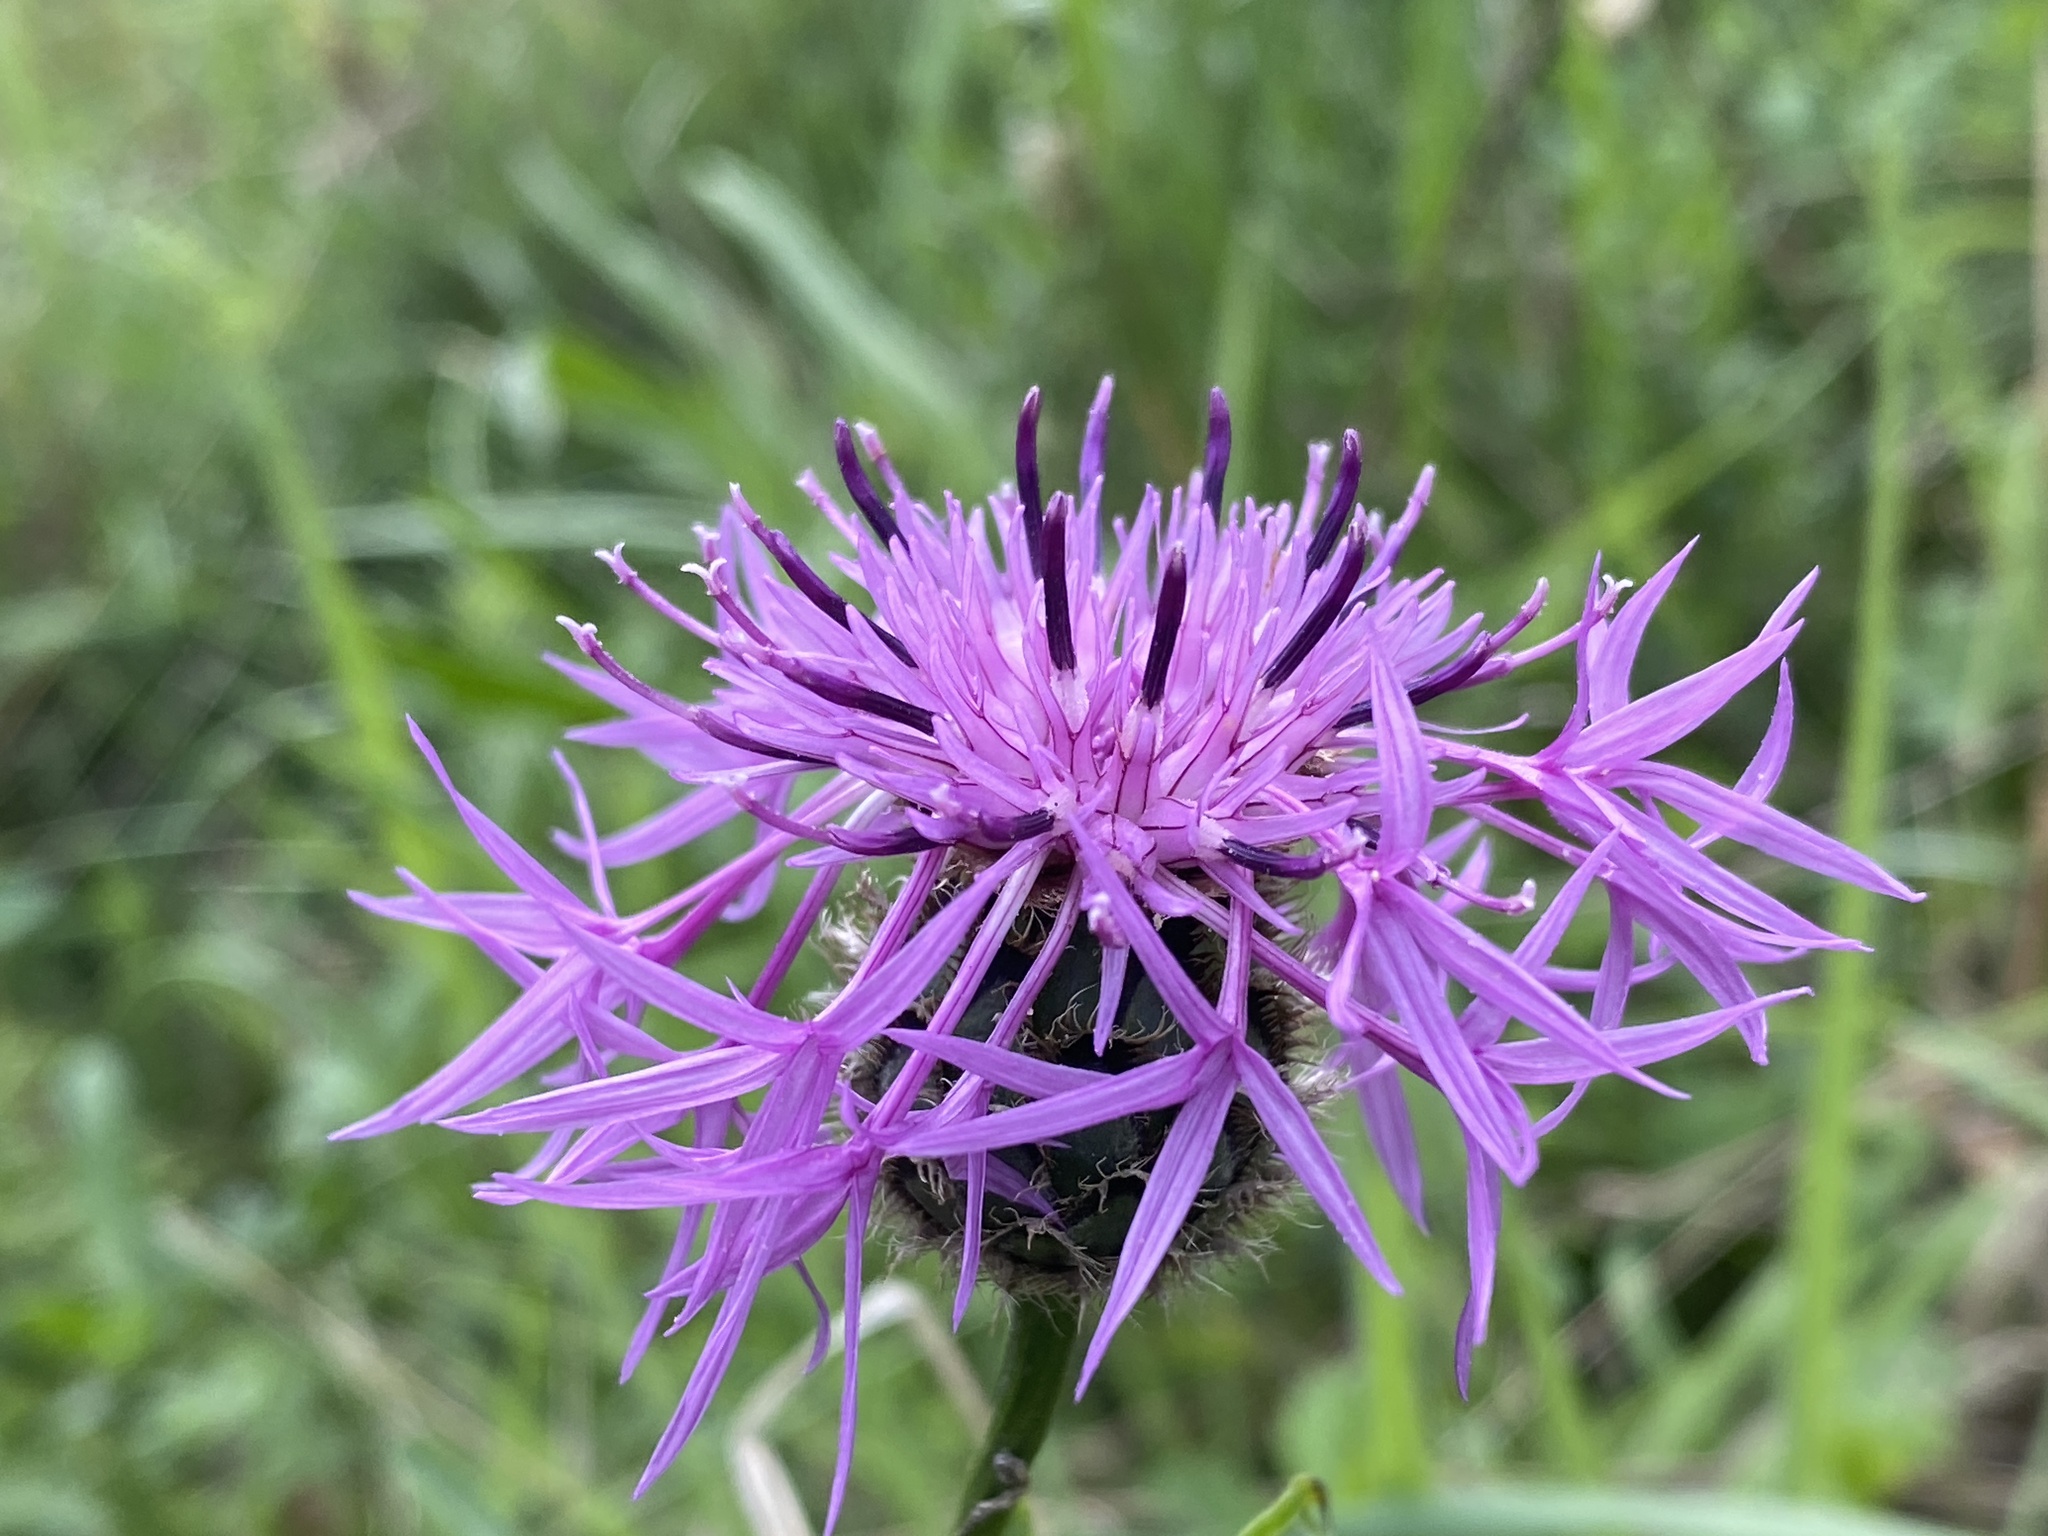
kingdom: Plantae
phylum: Tracheophyta
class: Magnoliopsida
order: Asterales
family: Asteraceae
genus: Centaurea
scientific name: Centaurea scabiosa
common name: Greater knapweed
